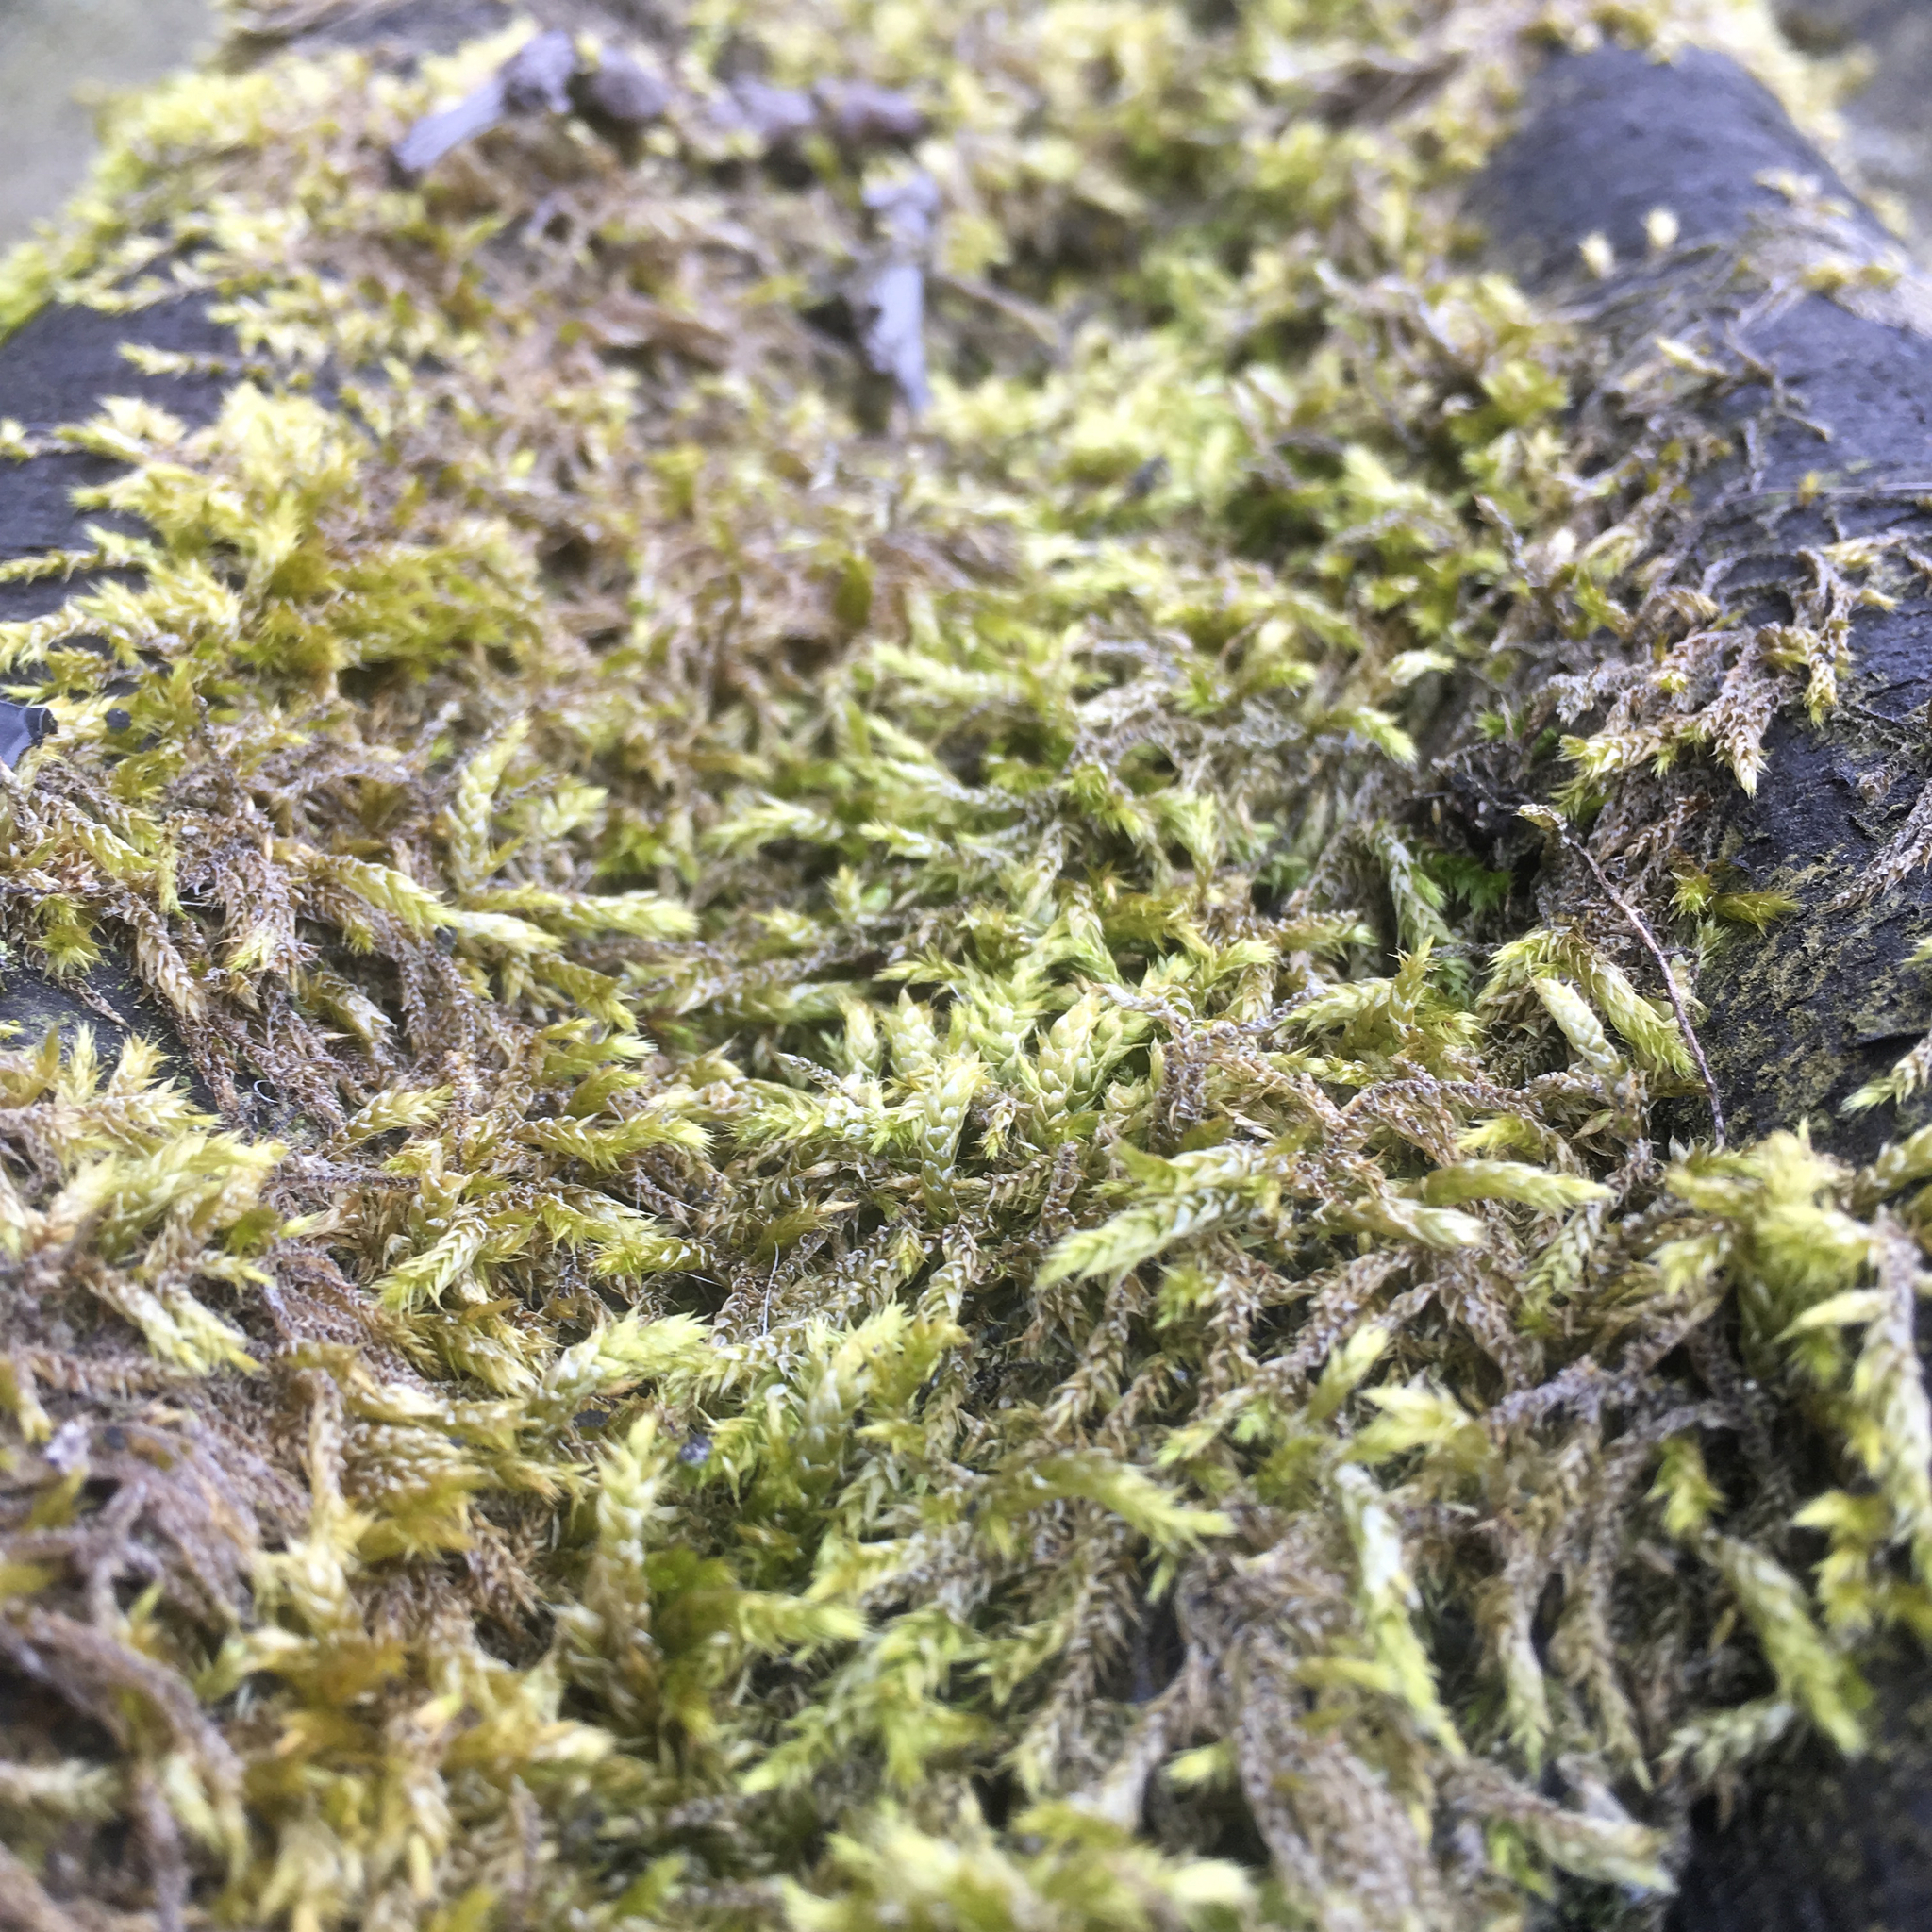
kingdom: Plantae
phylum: Bryophyta
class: Bryopsida
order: Hypnales
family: Hypnaceae
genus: Hypnum
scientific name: Hypnum cupressiforme
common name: Cypress-leaved plait-moss
